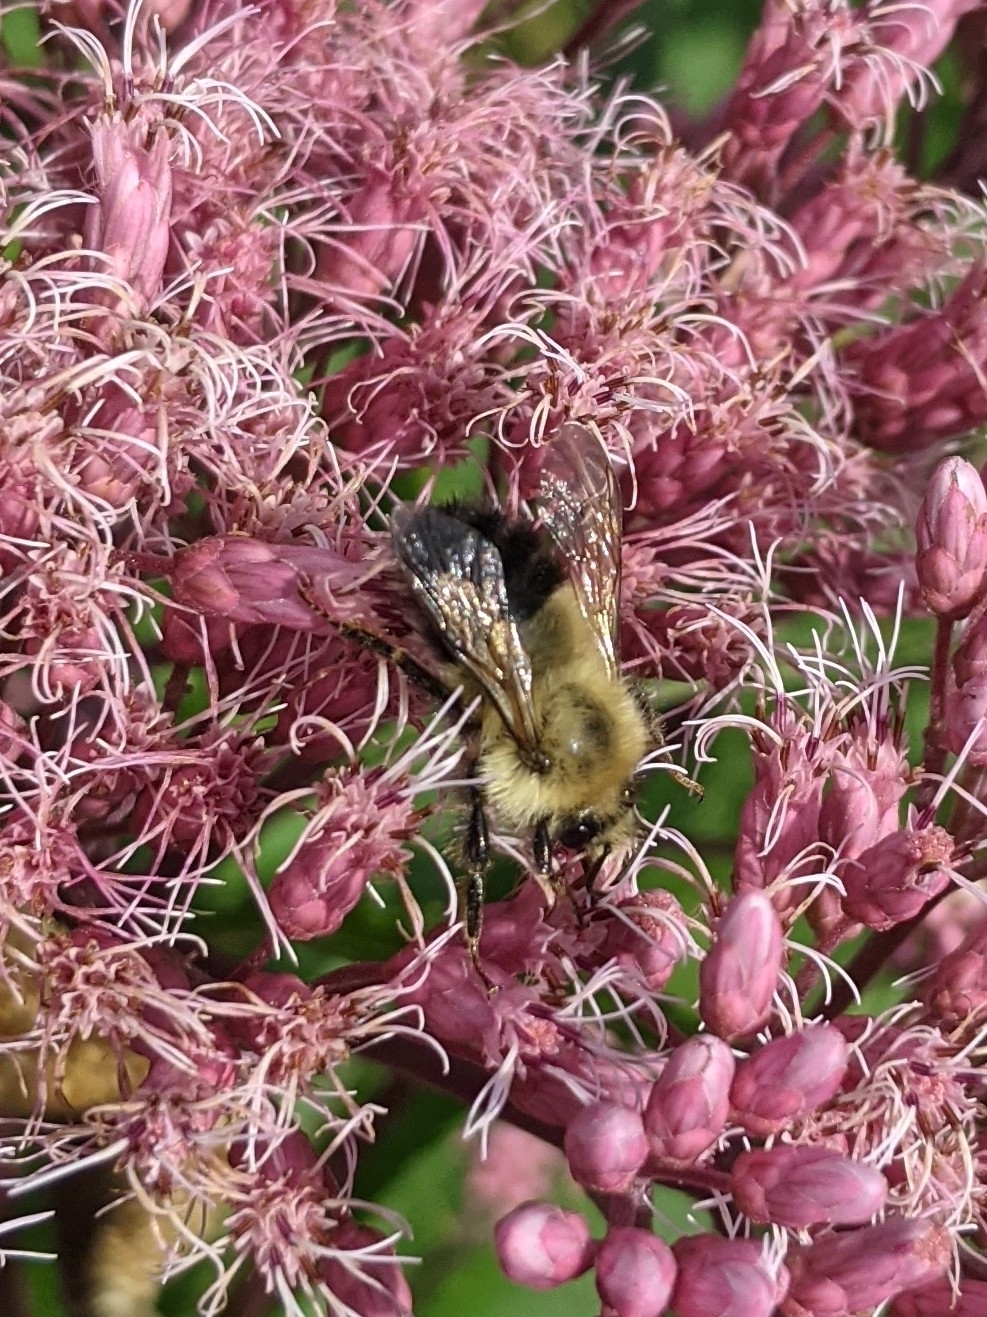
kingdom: Animalia
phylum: Arthropoda
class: Insecta
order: Hymenoptera
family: Apidae
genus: Bombus
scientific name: Bombus vagans
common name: Half-black bumble bee
